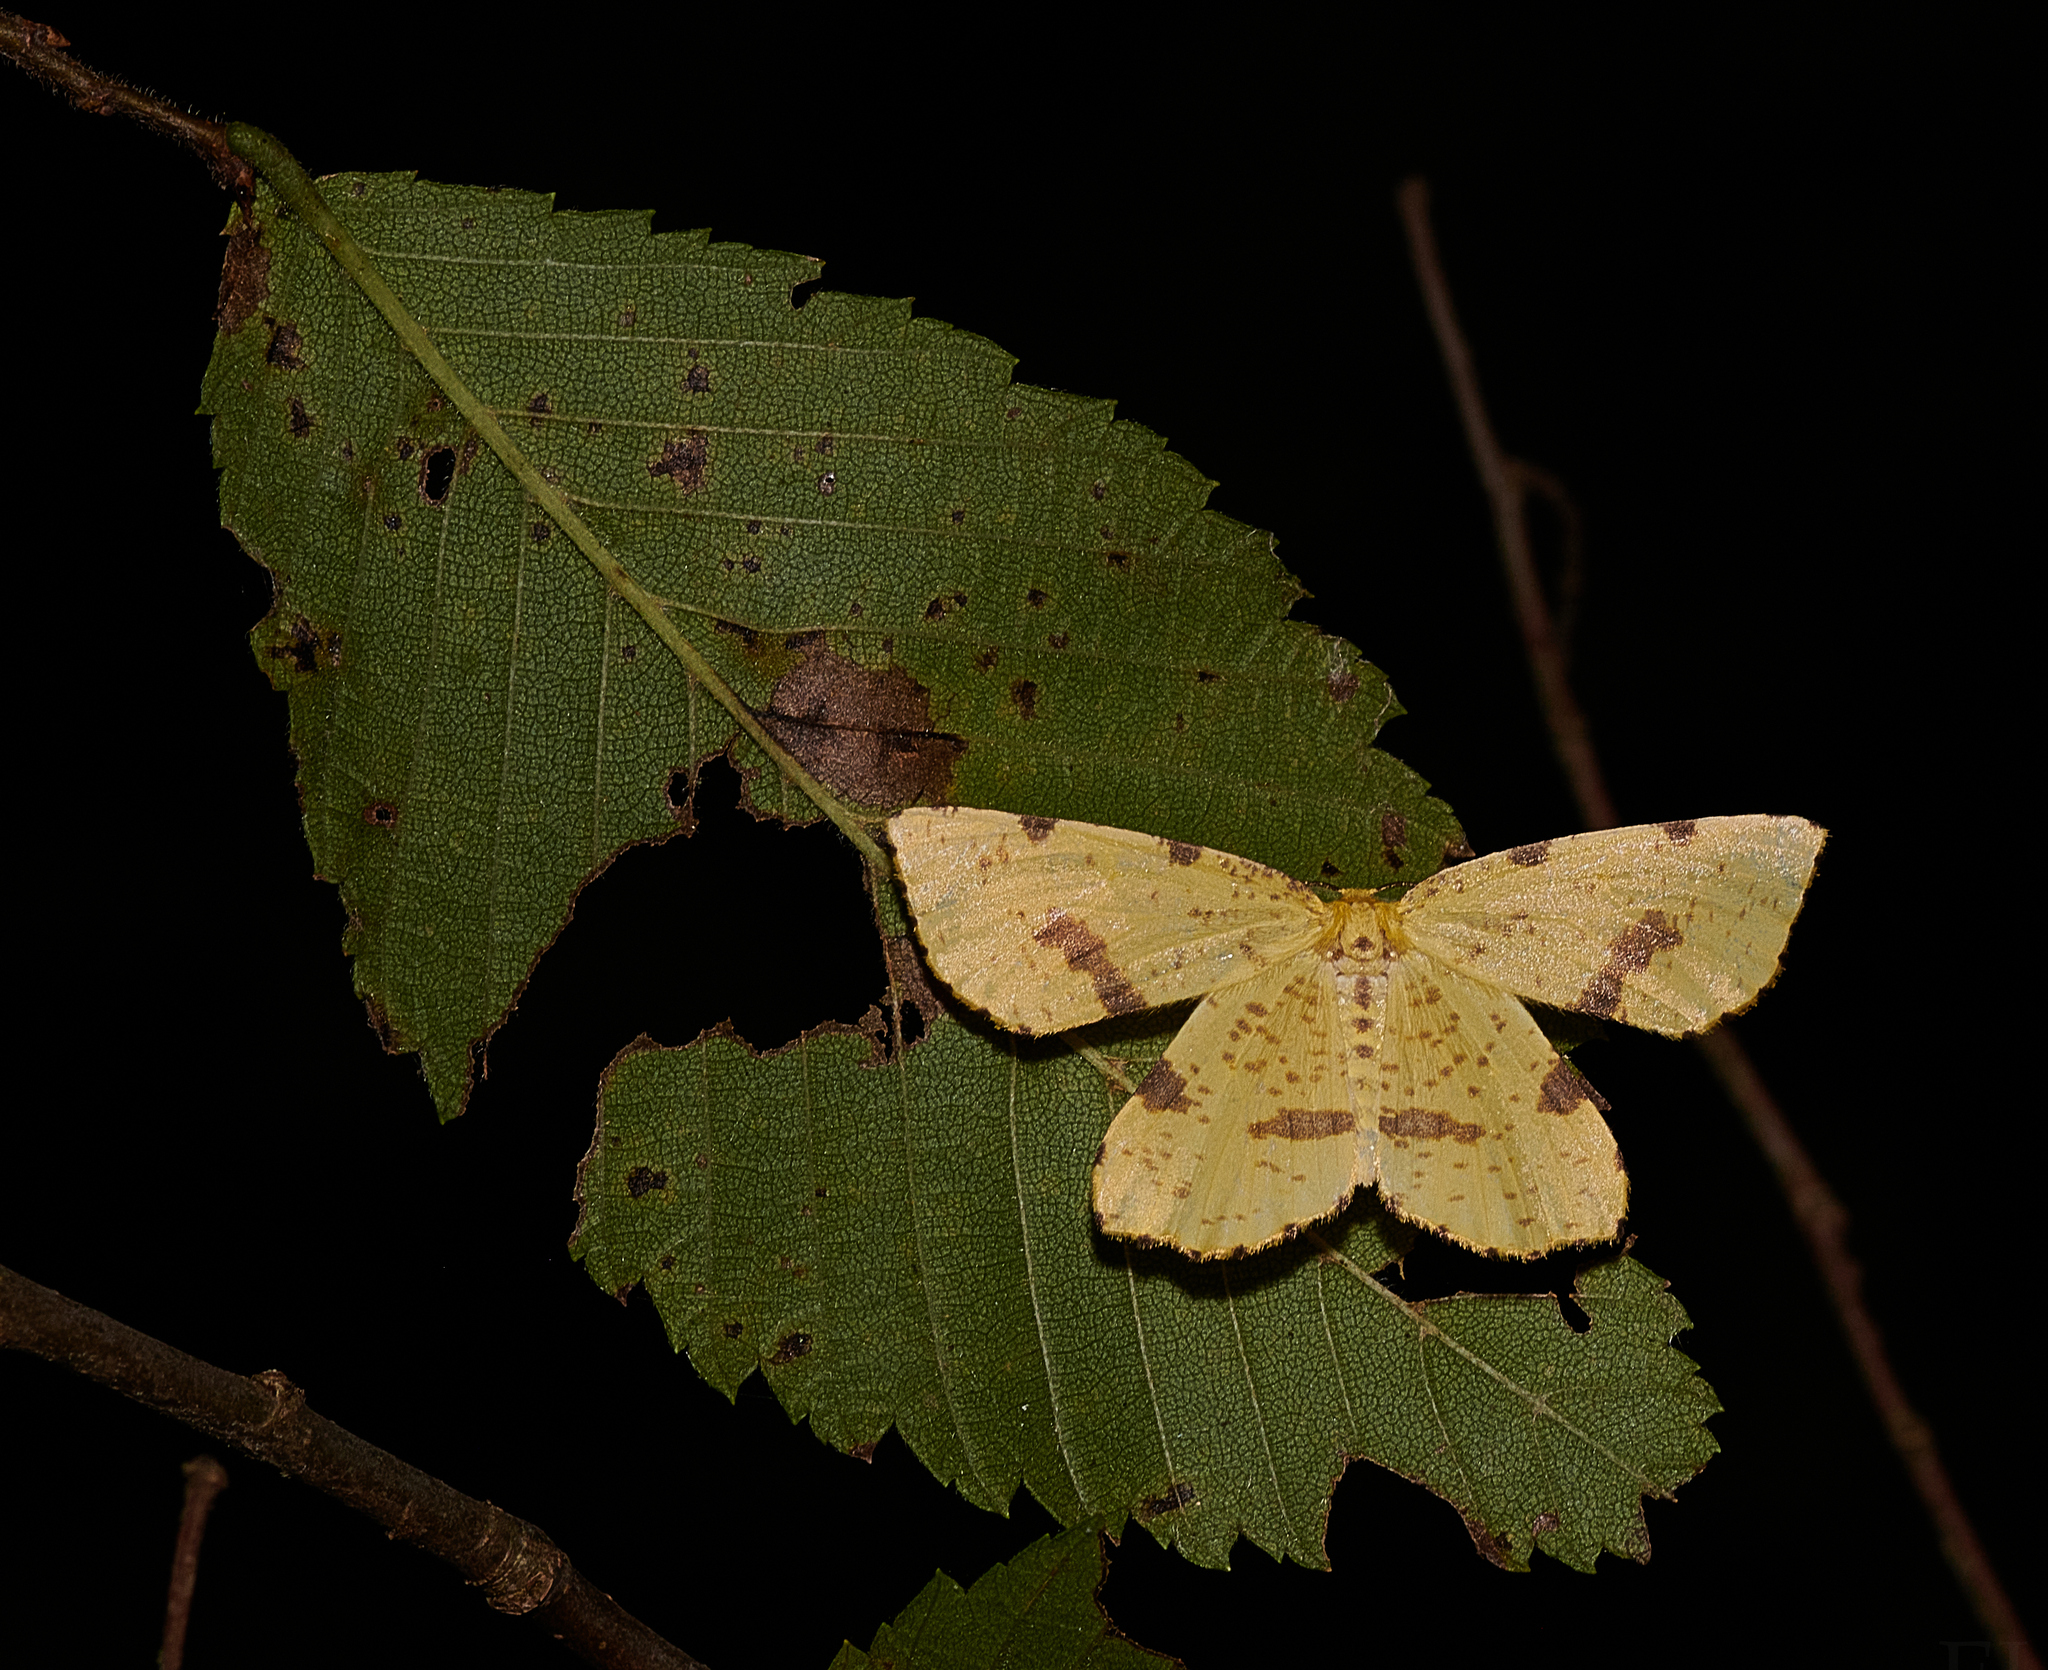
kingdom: Animalia
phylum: Arthropoda
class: Insecta
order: Lepidoptera
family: Geometridae
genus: Xanthotype
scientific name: Xanthotype
